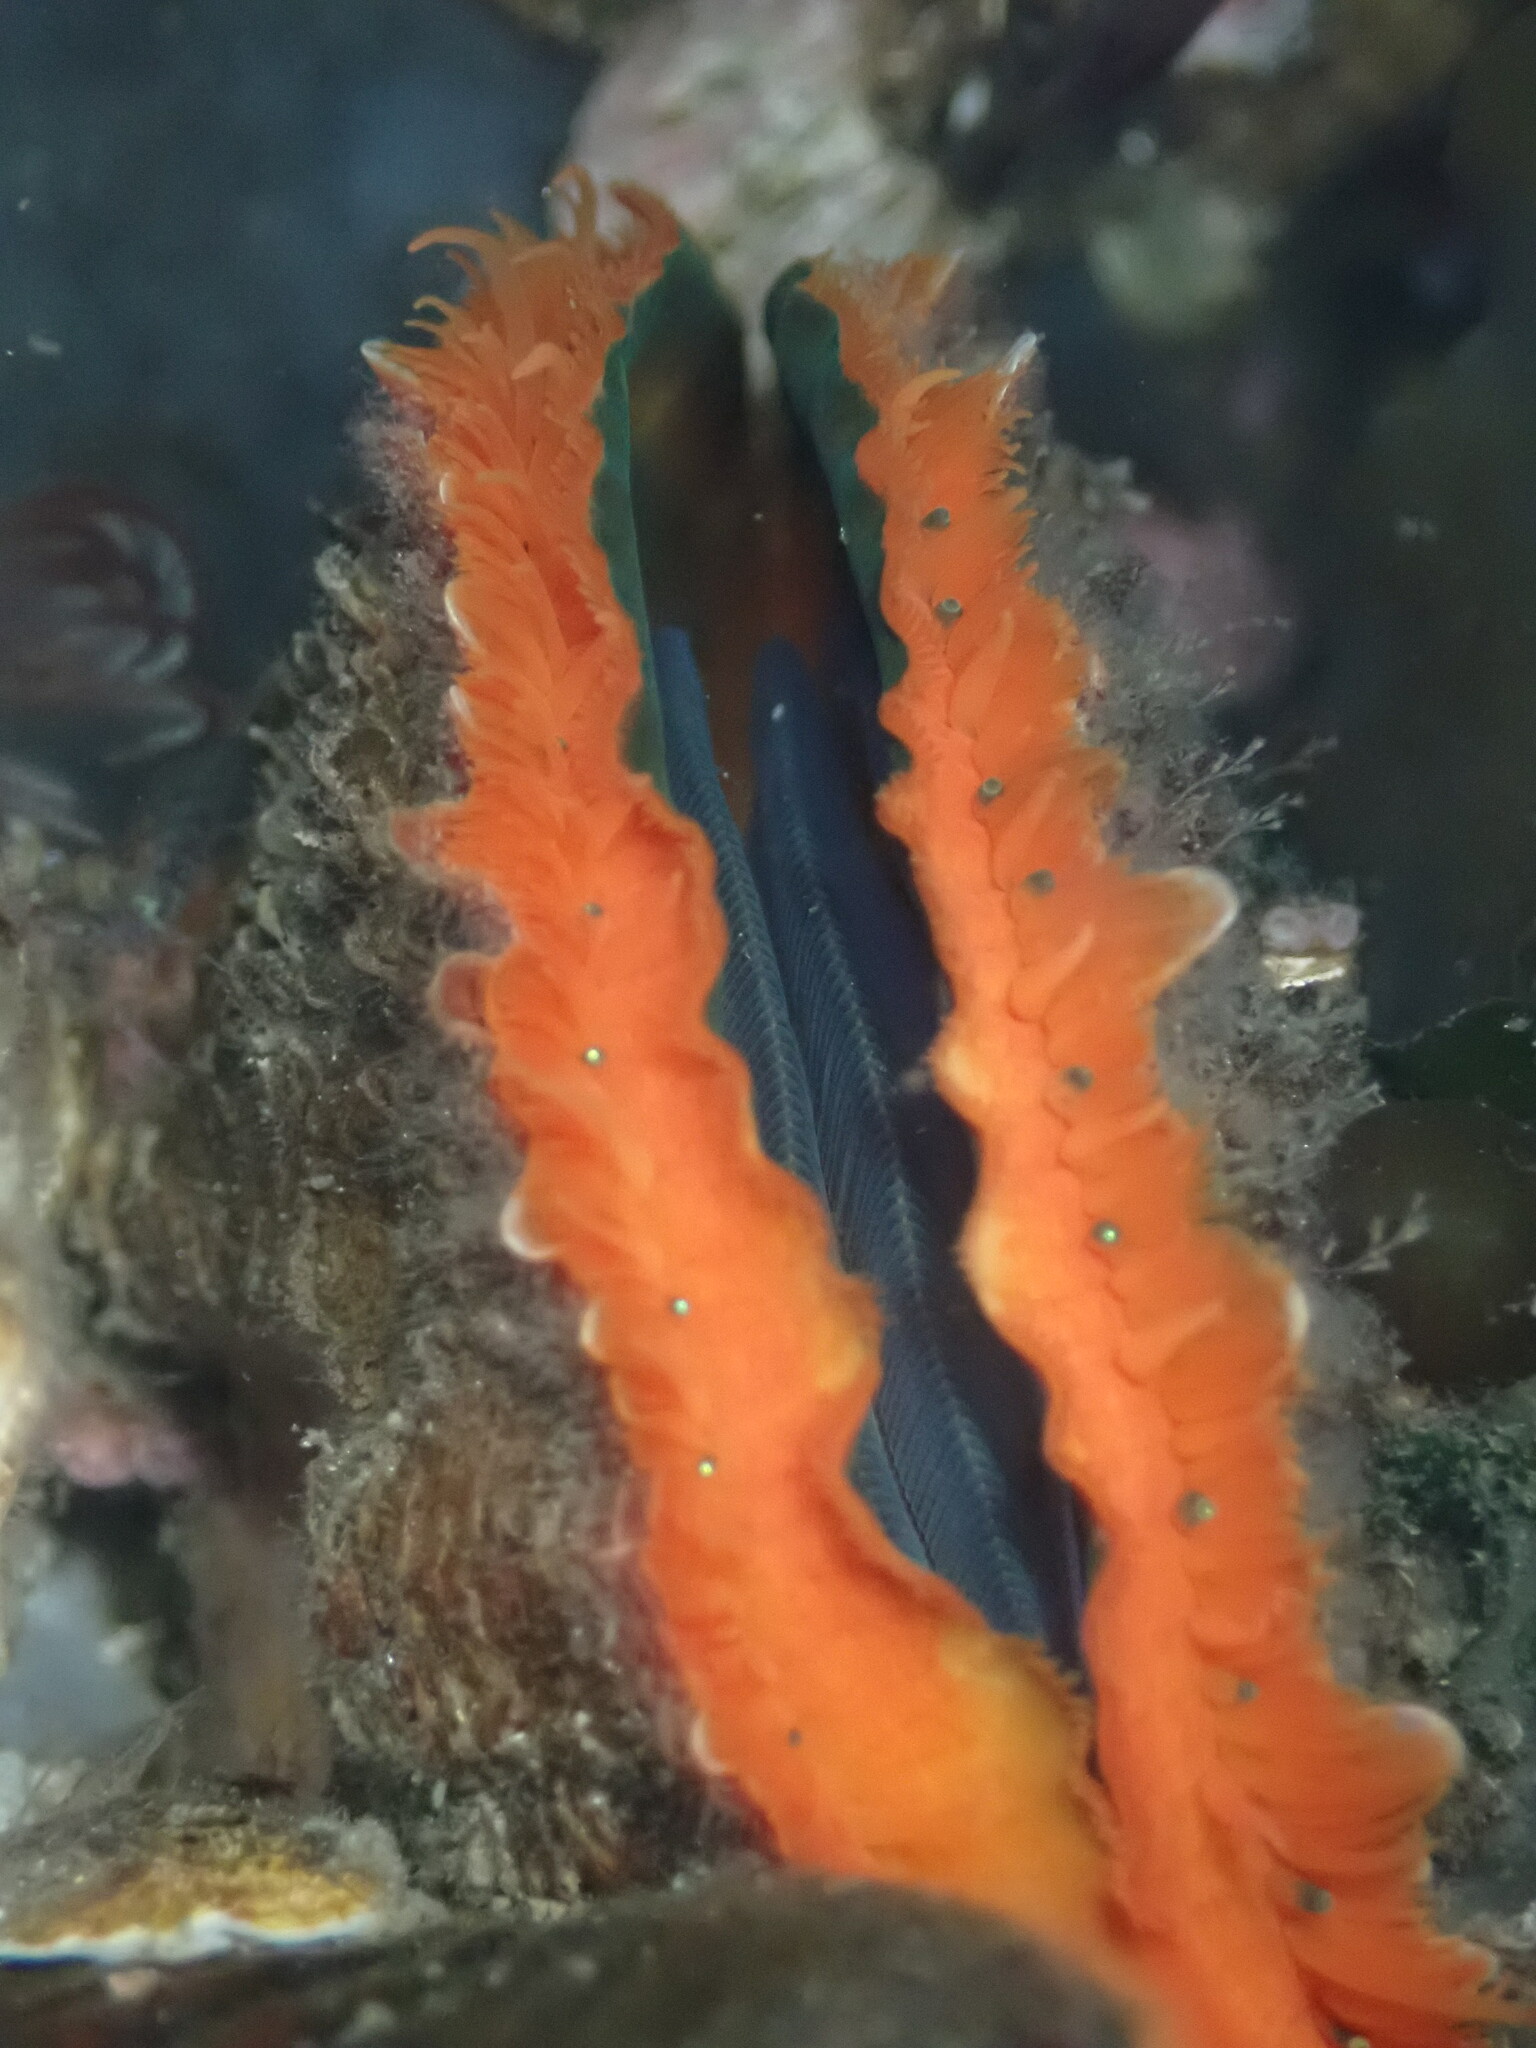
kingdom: Animalia
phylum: Mollusca
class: Bivalvia
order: Pectinida
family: Pectinidae
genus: Crassadoma
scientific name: Crassadoma gigantea
